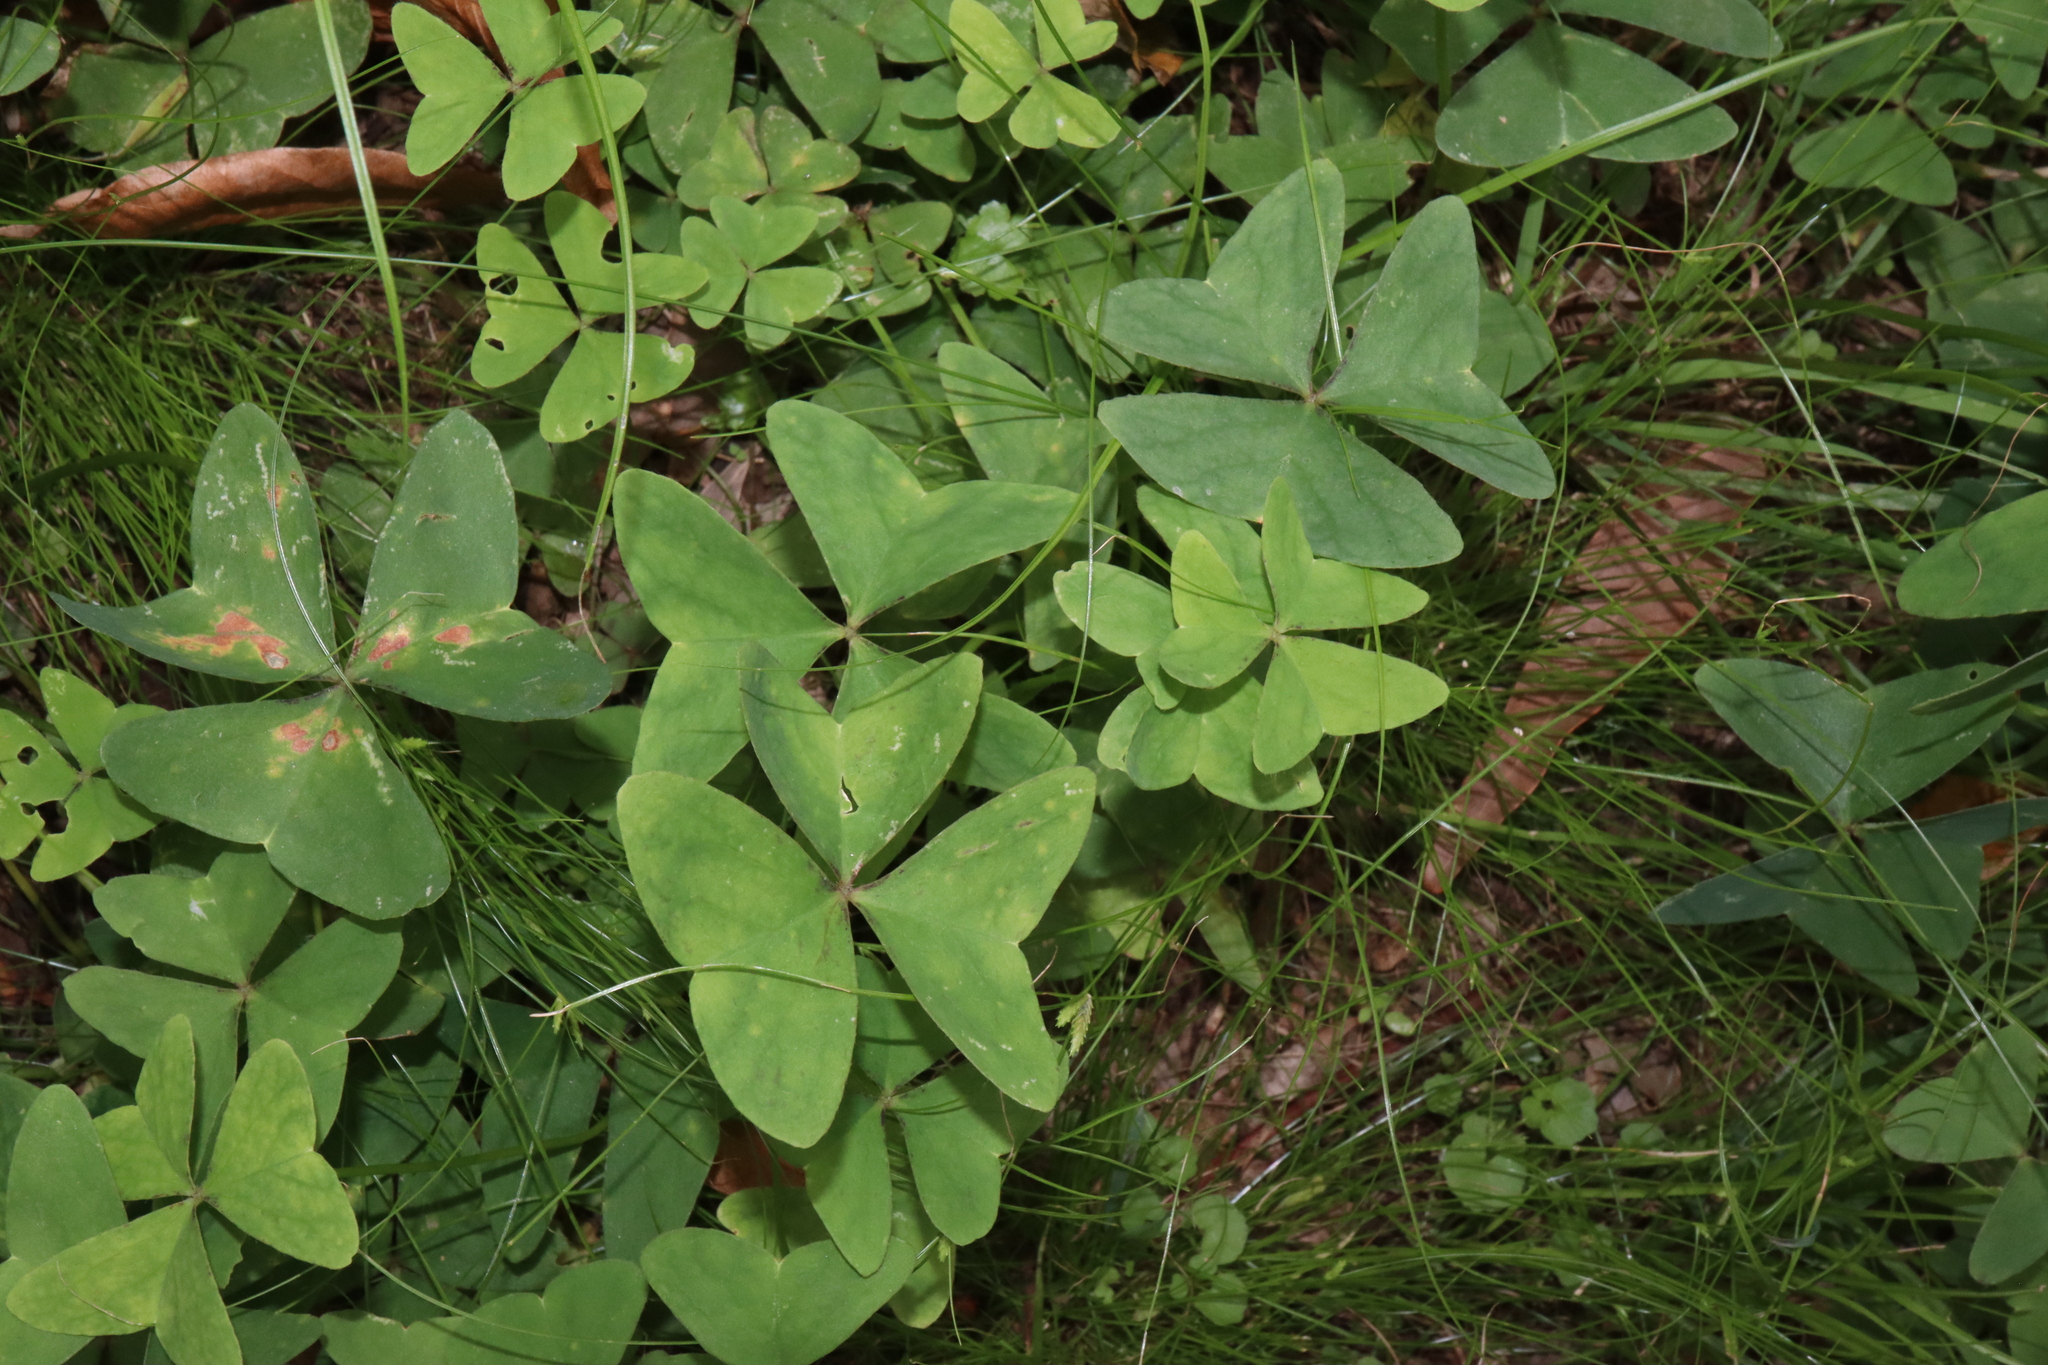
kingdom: Plantae
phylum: Tracheophyta
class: Magnoliopsida
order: Oxalidales
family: Oxalidaceae
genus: Oxalis
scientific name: Oxalis latifolia
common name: Garden pink-sorrel
